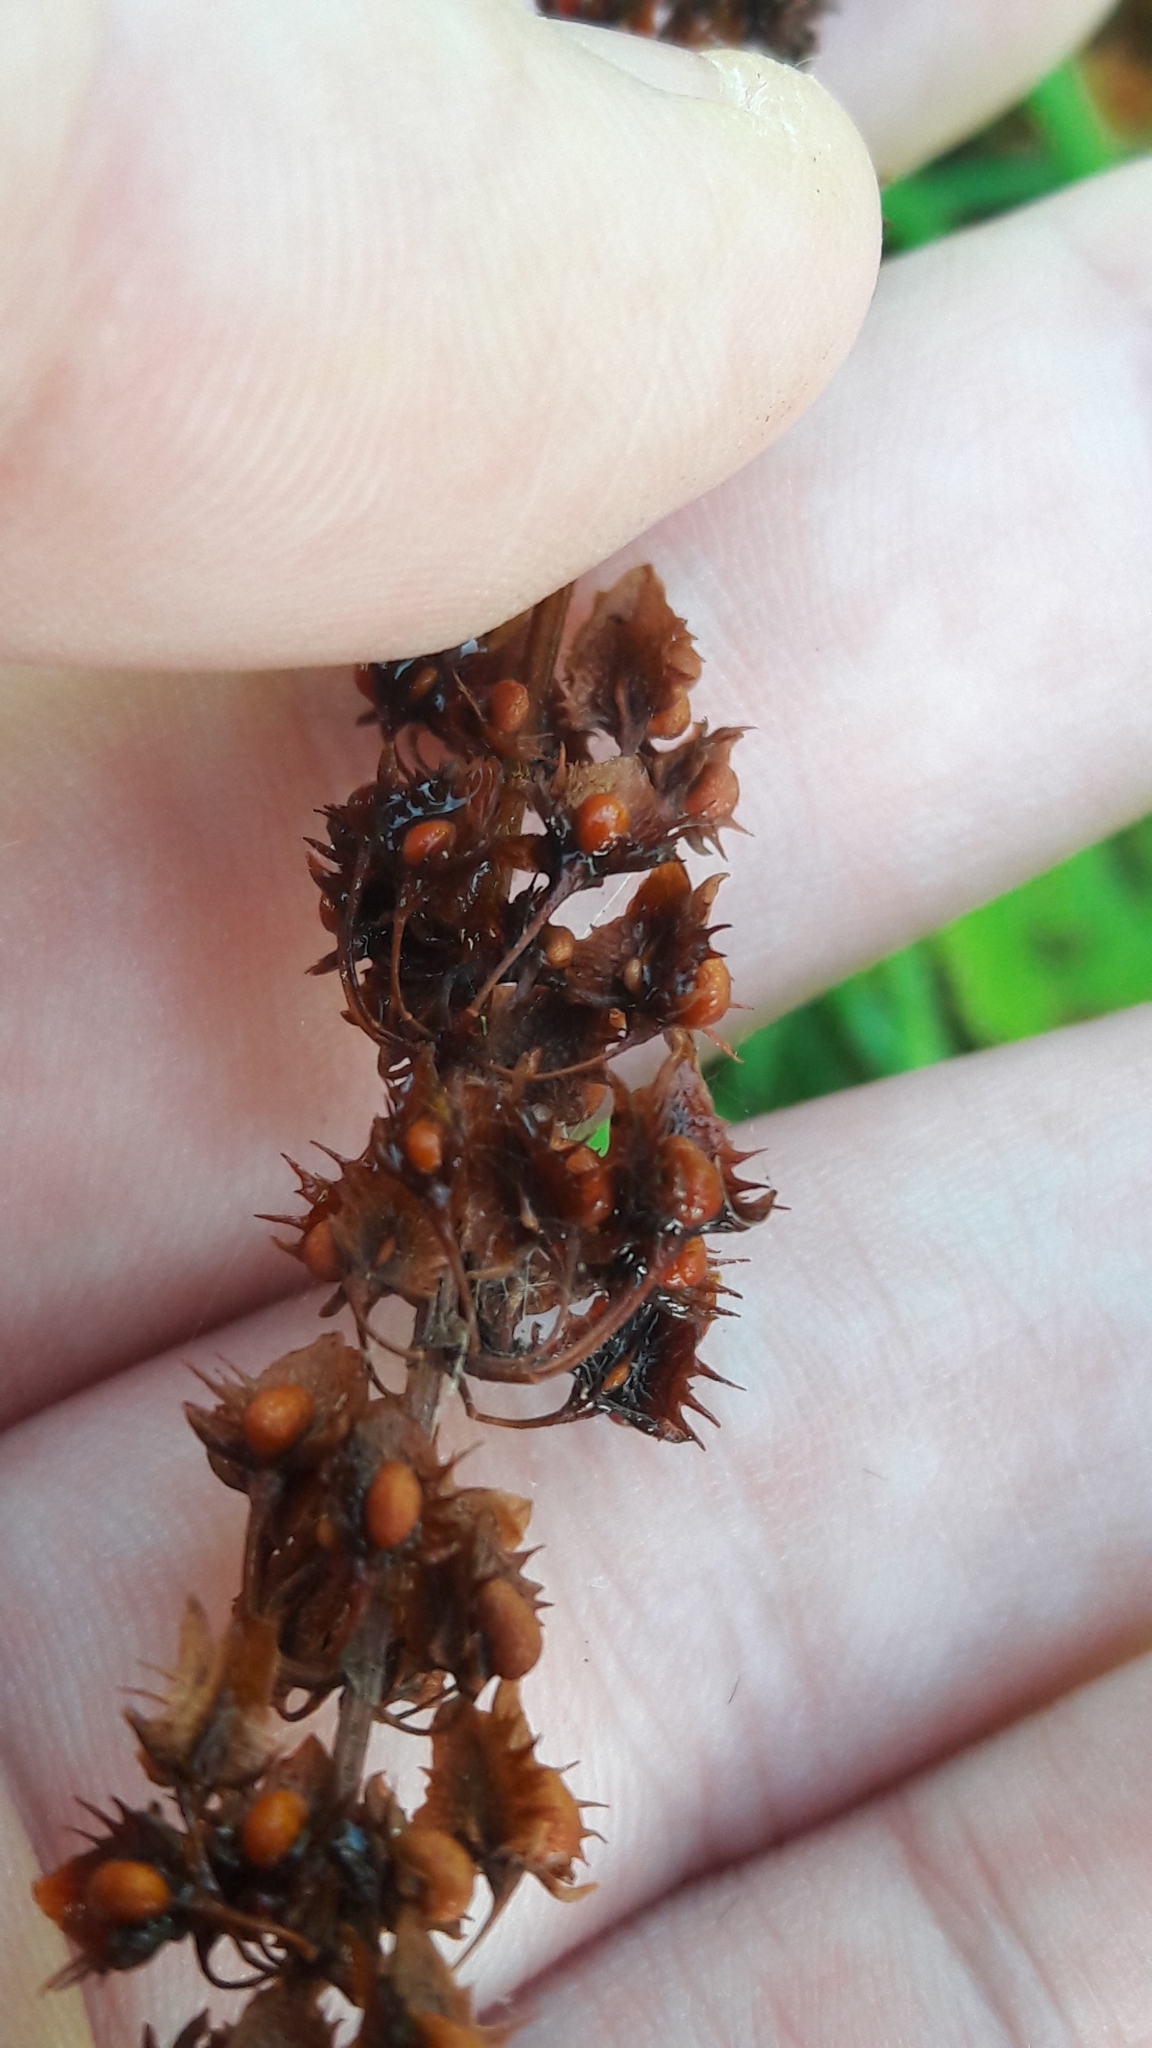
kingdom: Plantae
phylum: Tracheophyta
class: Magnoliopsida
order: Caryophyllales
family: Polygonaceae
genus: Rumex
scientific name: Rumex obtusifolius
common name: Bitter dock
